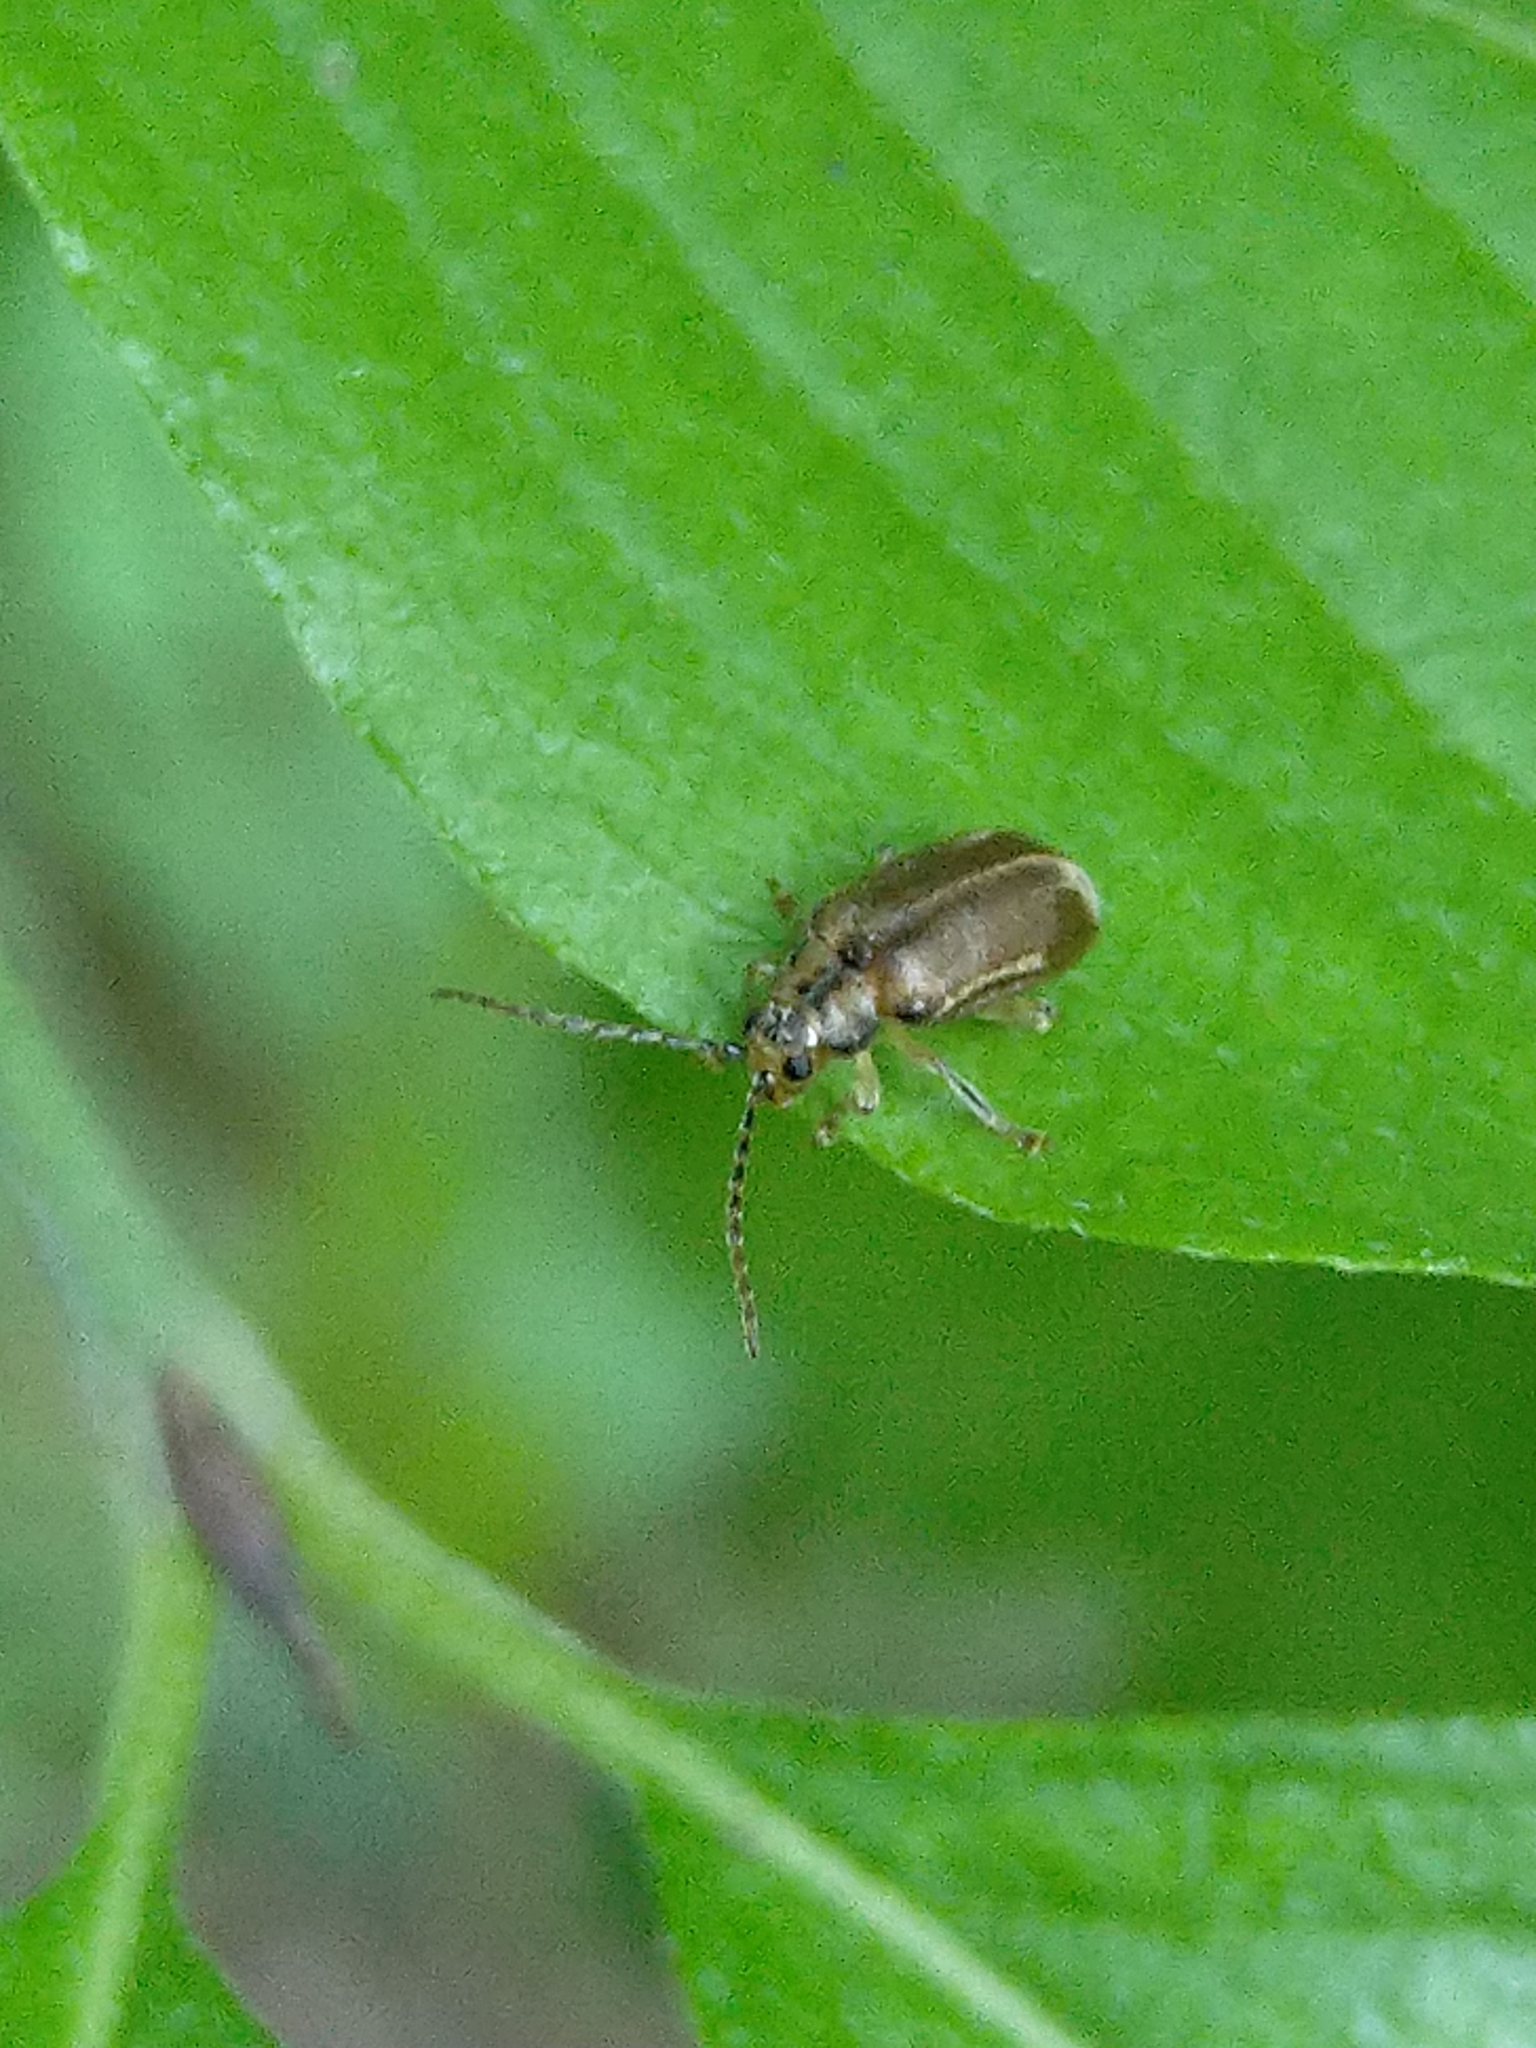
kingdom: Animalia
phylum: Arthropoda
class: Insecta
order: Coleoptera
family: Chrysomelidae
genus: Pyrrhalta
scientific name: Pyrrhalta viburni
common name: Guelder-rose leaf beetle
